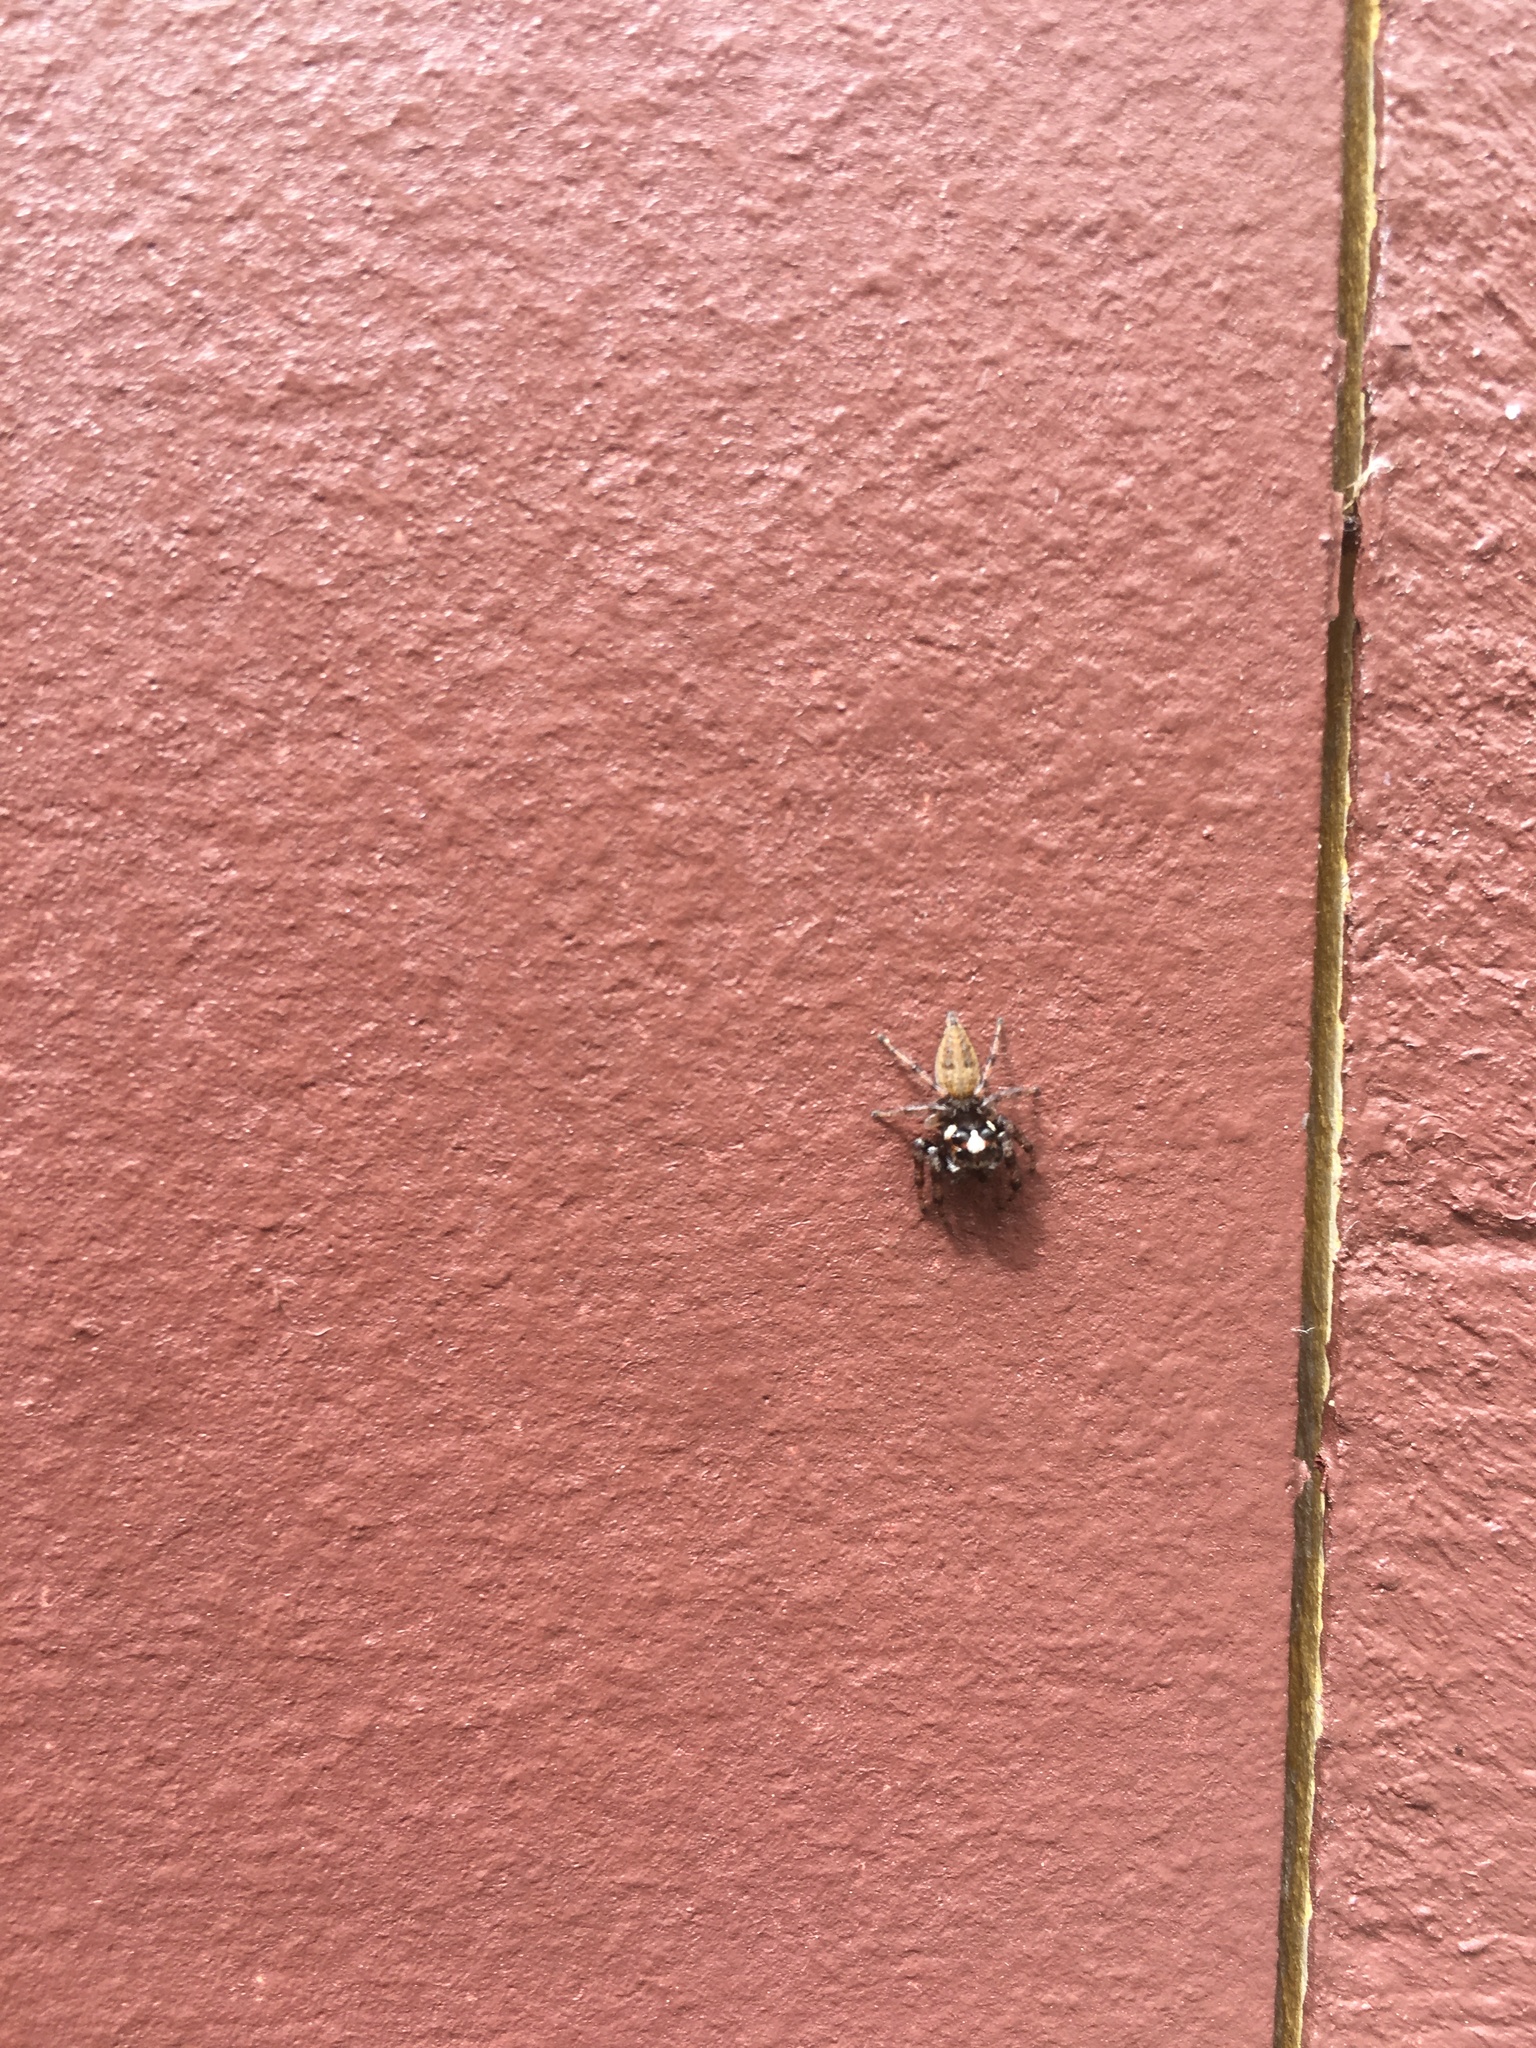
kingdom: Animalia
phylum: Arthropoda
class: Arachnida
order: Araneae
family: Salticidae
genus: Colonus
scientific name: Colonus hesperus
